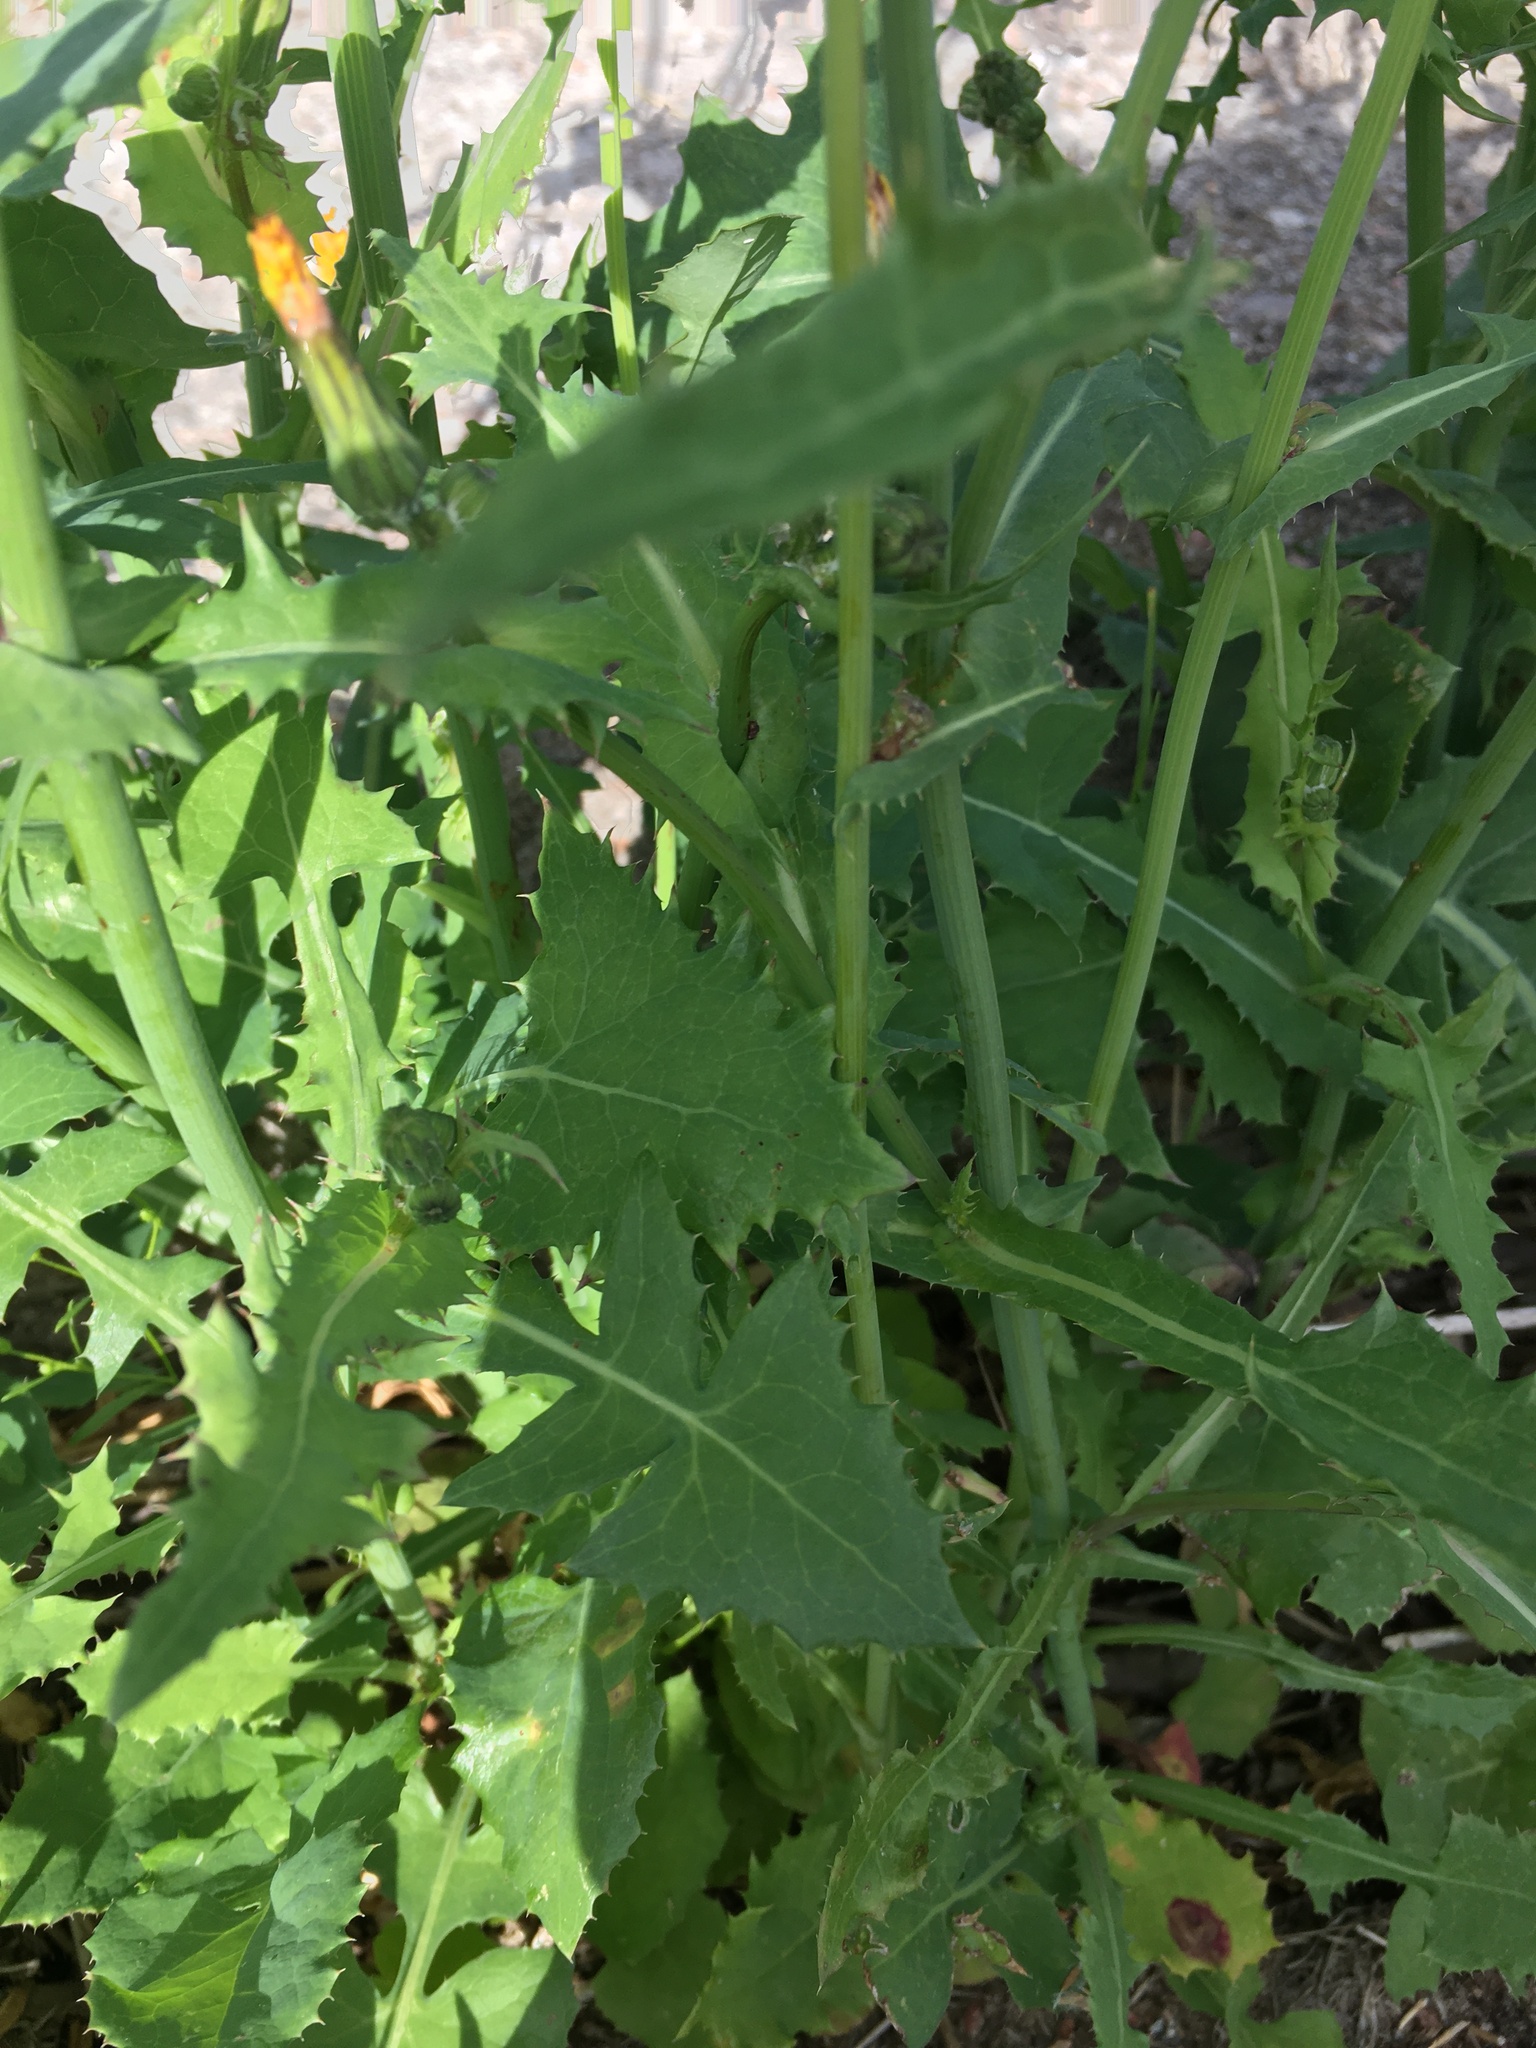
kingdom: Plantae
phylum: Tracheophyta
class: Magnoliopsida
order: Asterales
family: Asteraceae
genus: Sonchus
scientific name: Sonchus oleraceus
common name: Common sowthistle
